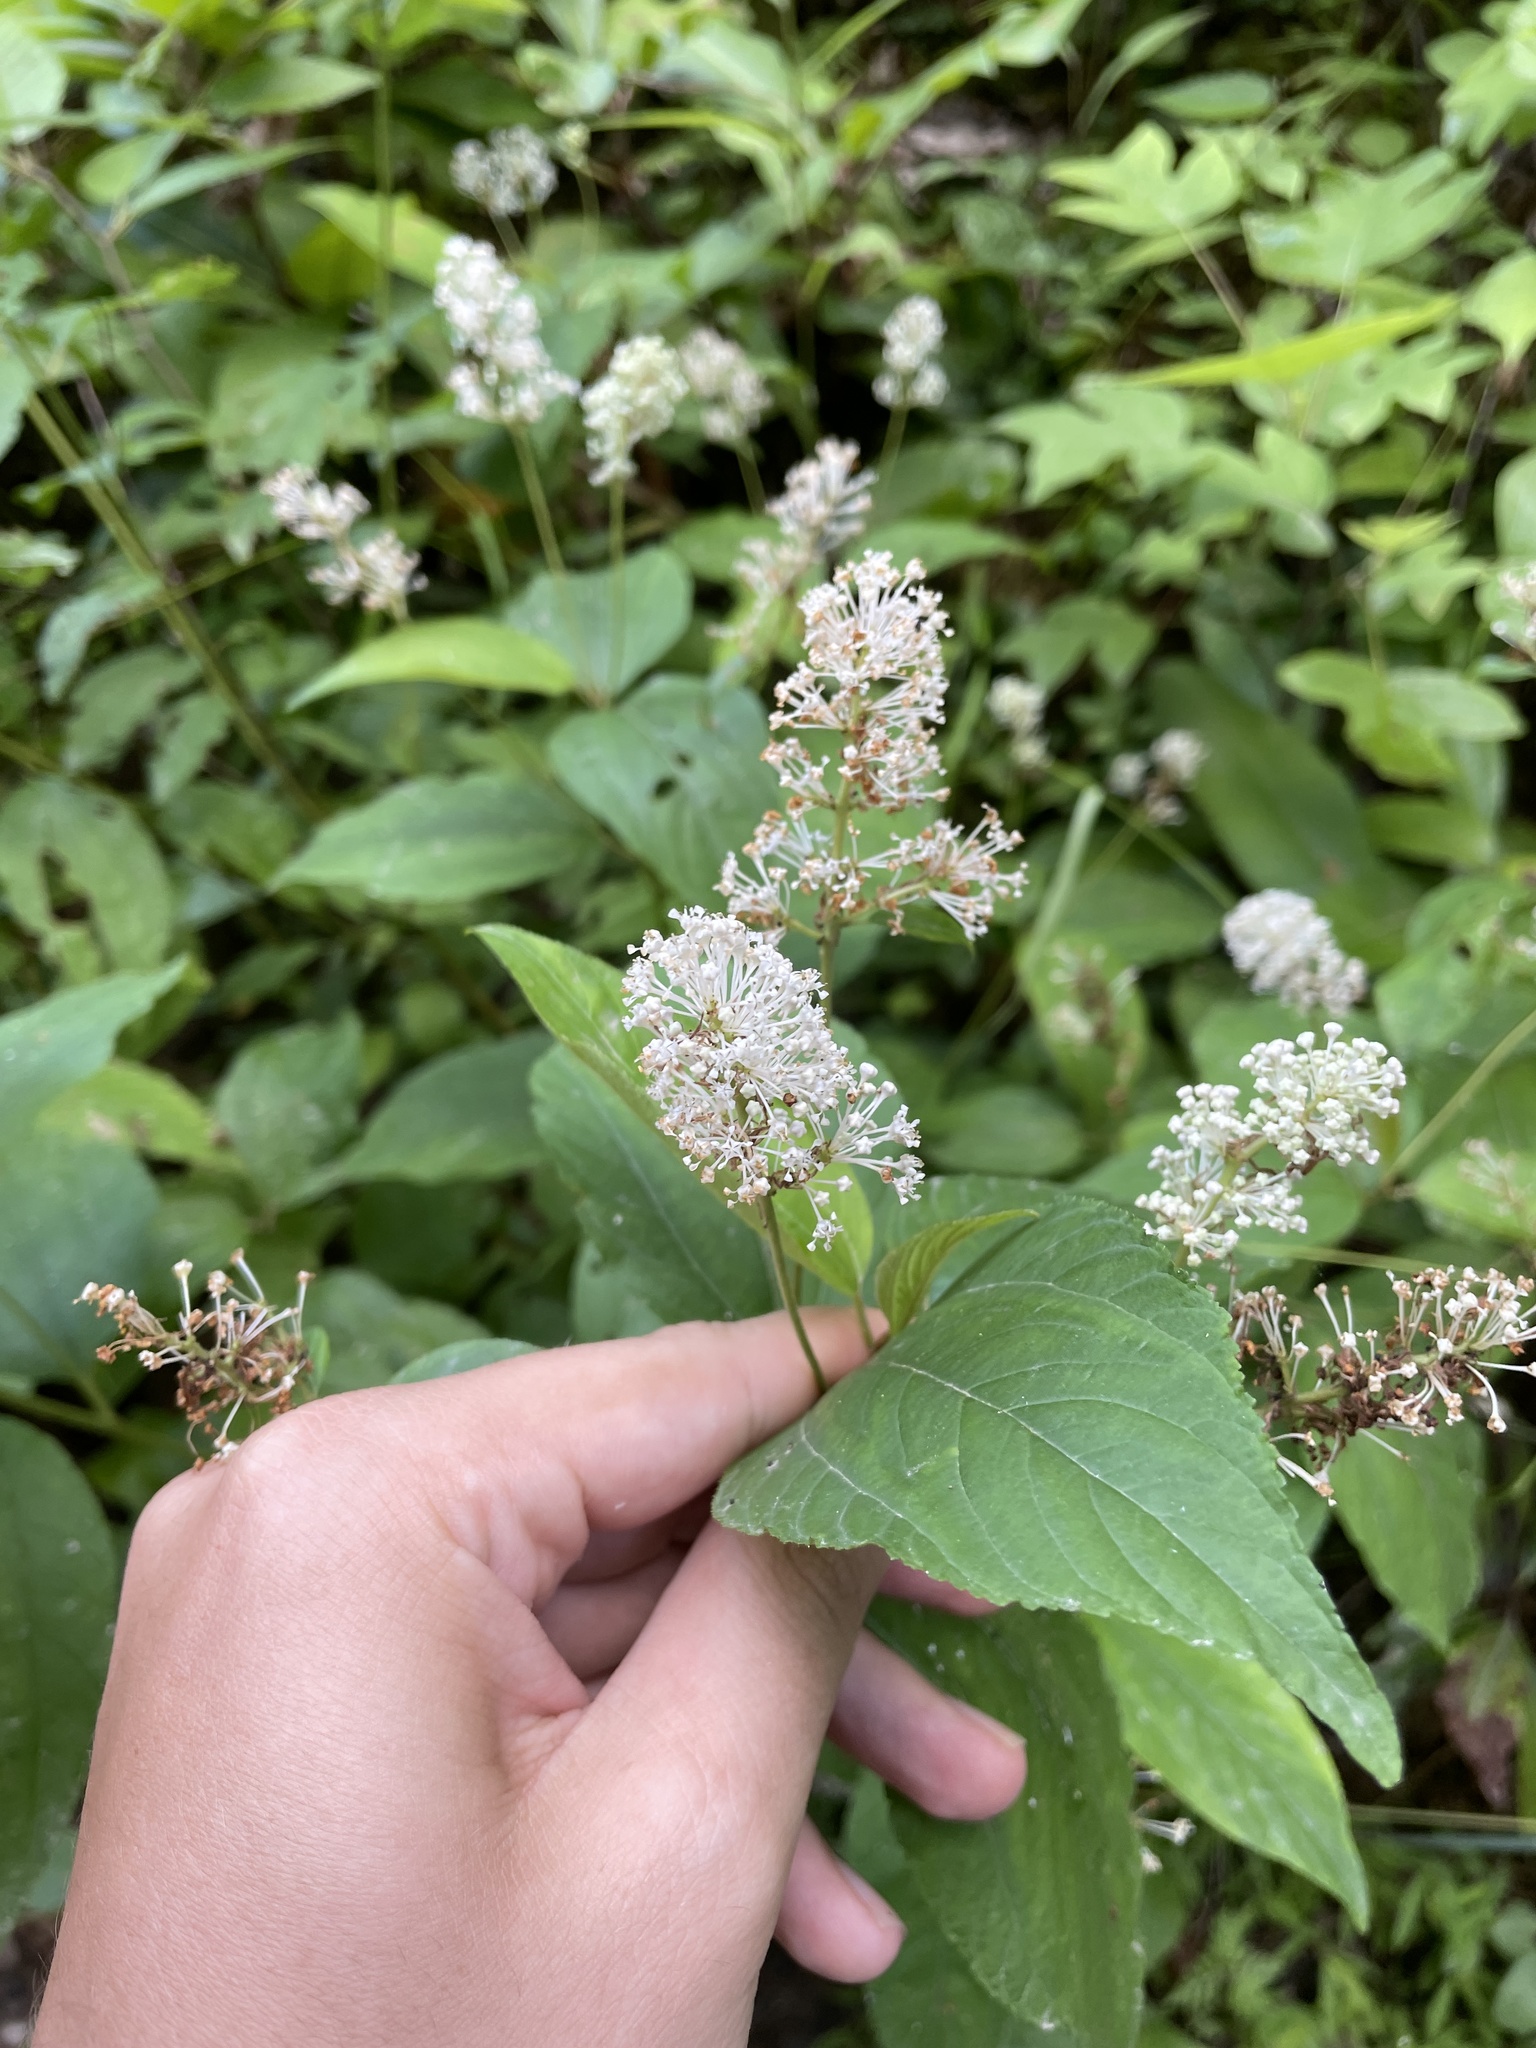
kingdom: Plantae
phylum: Tracheophyta
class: Magnoliopsida
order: Rosales
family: Rhamnaceae
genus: Ceanothus
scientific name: Ceanothus americanus
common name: Redroot
